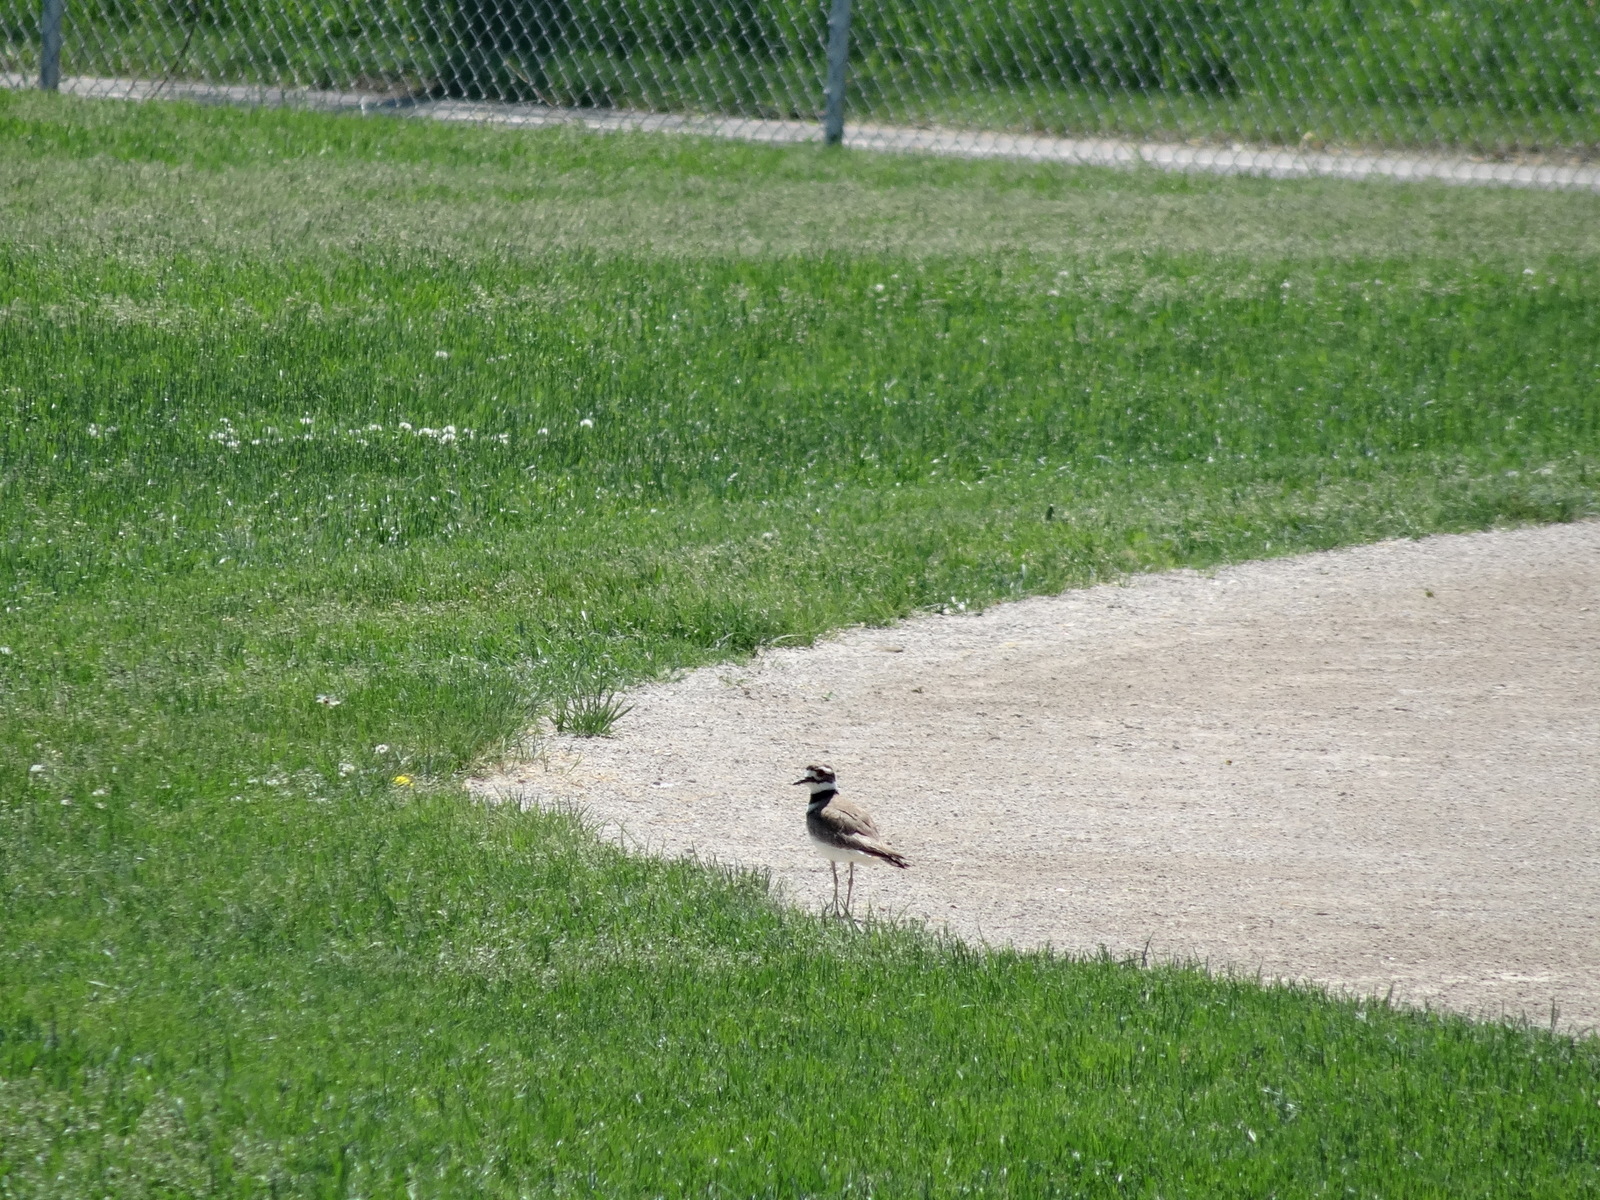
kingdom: Animalia
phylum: Chordata
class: Aves
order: Charadriiformes
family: Charadriidae
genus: Charadrius
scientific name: Charadrius vociferus
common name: Killdeer
